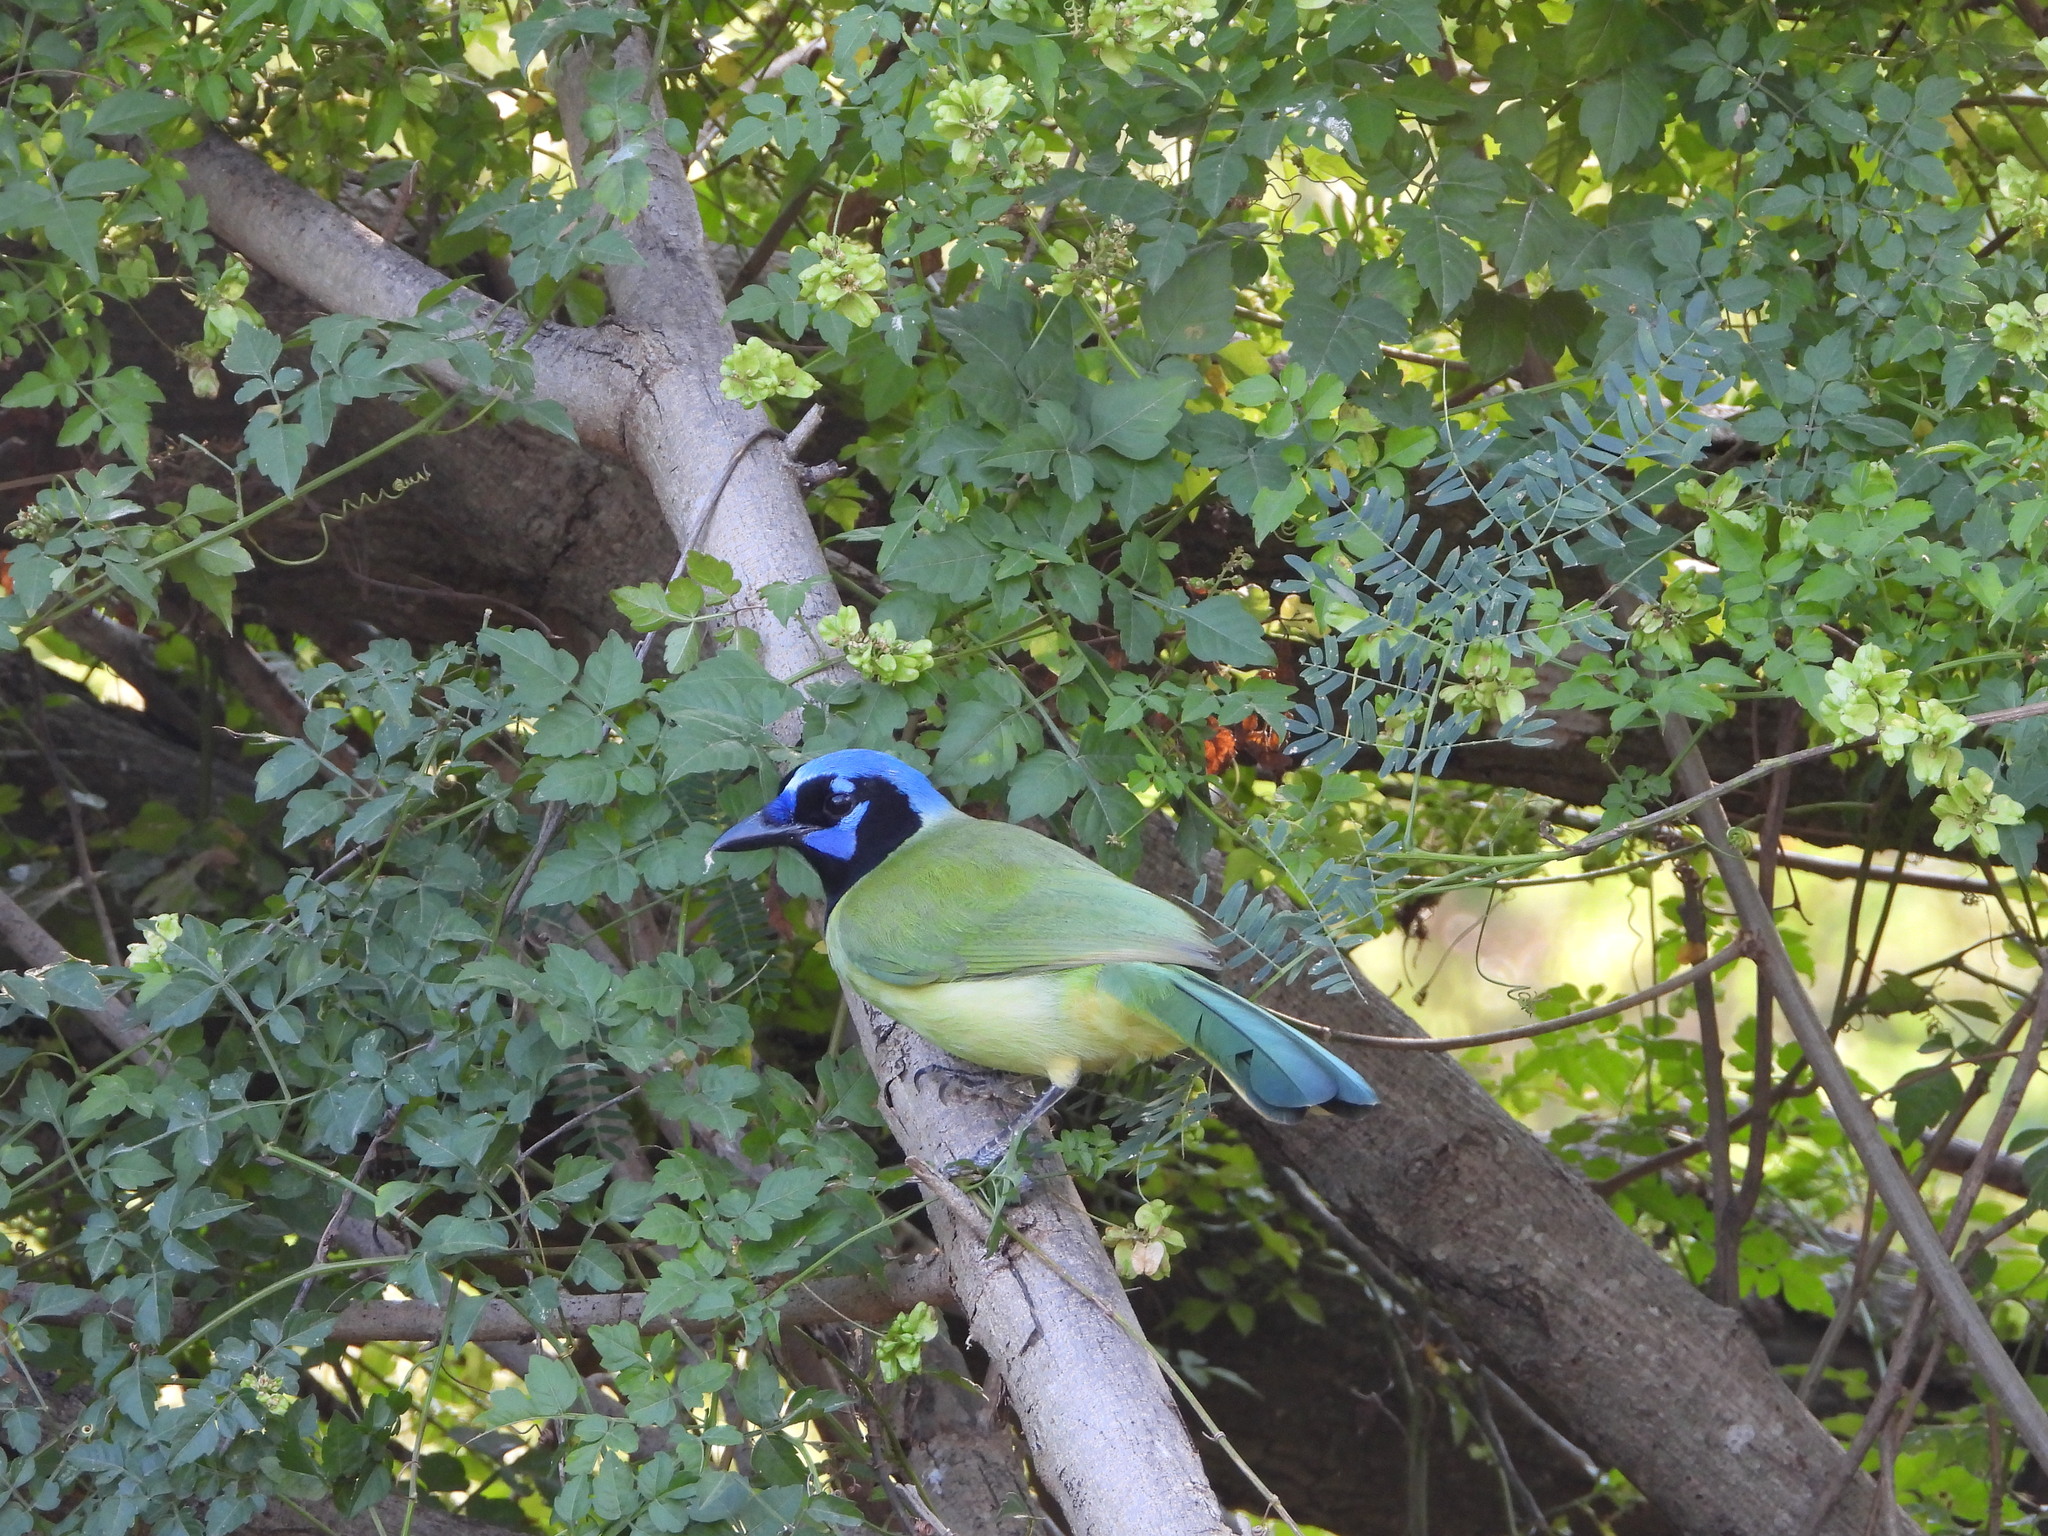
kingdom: Animalia
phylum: Chordata
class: Aves
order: Passeriformes
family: Corvidae
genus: Cyanocorax
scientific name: Cyanocorax yncas
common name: Green jay
